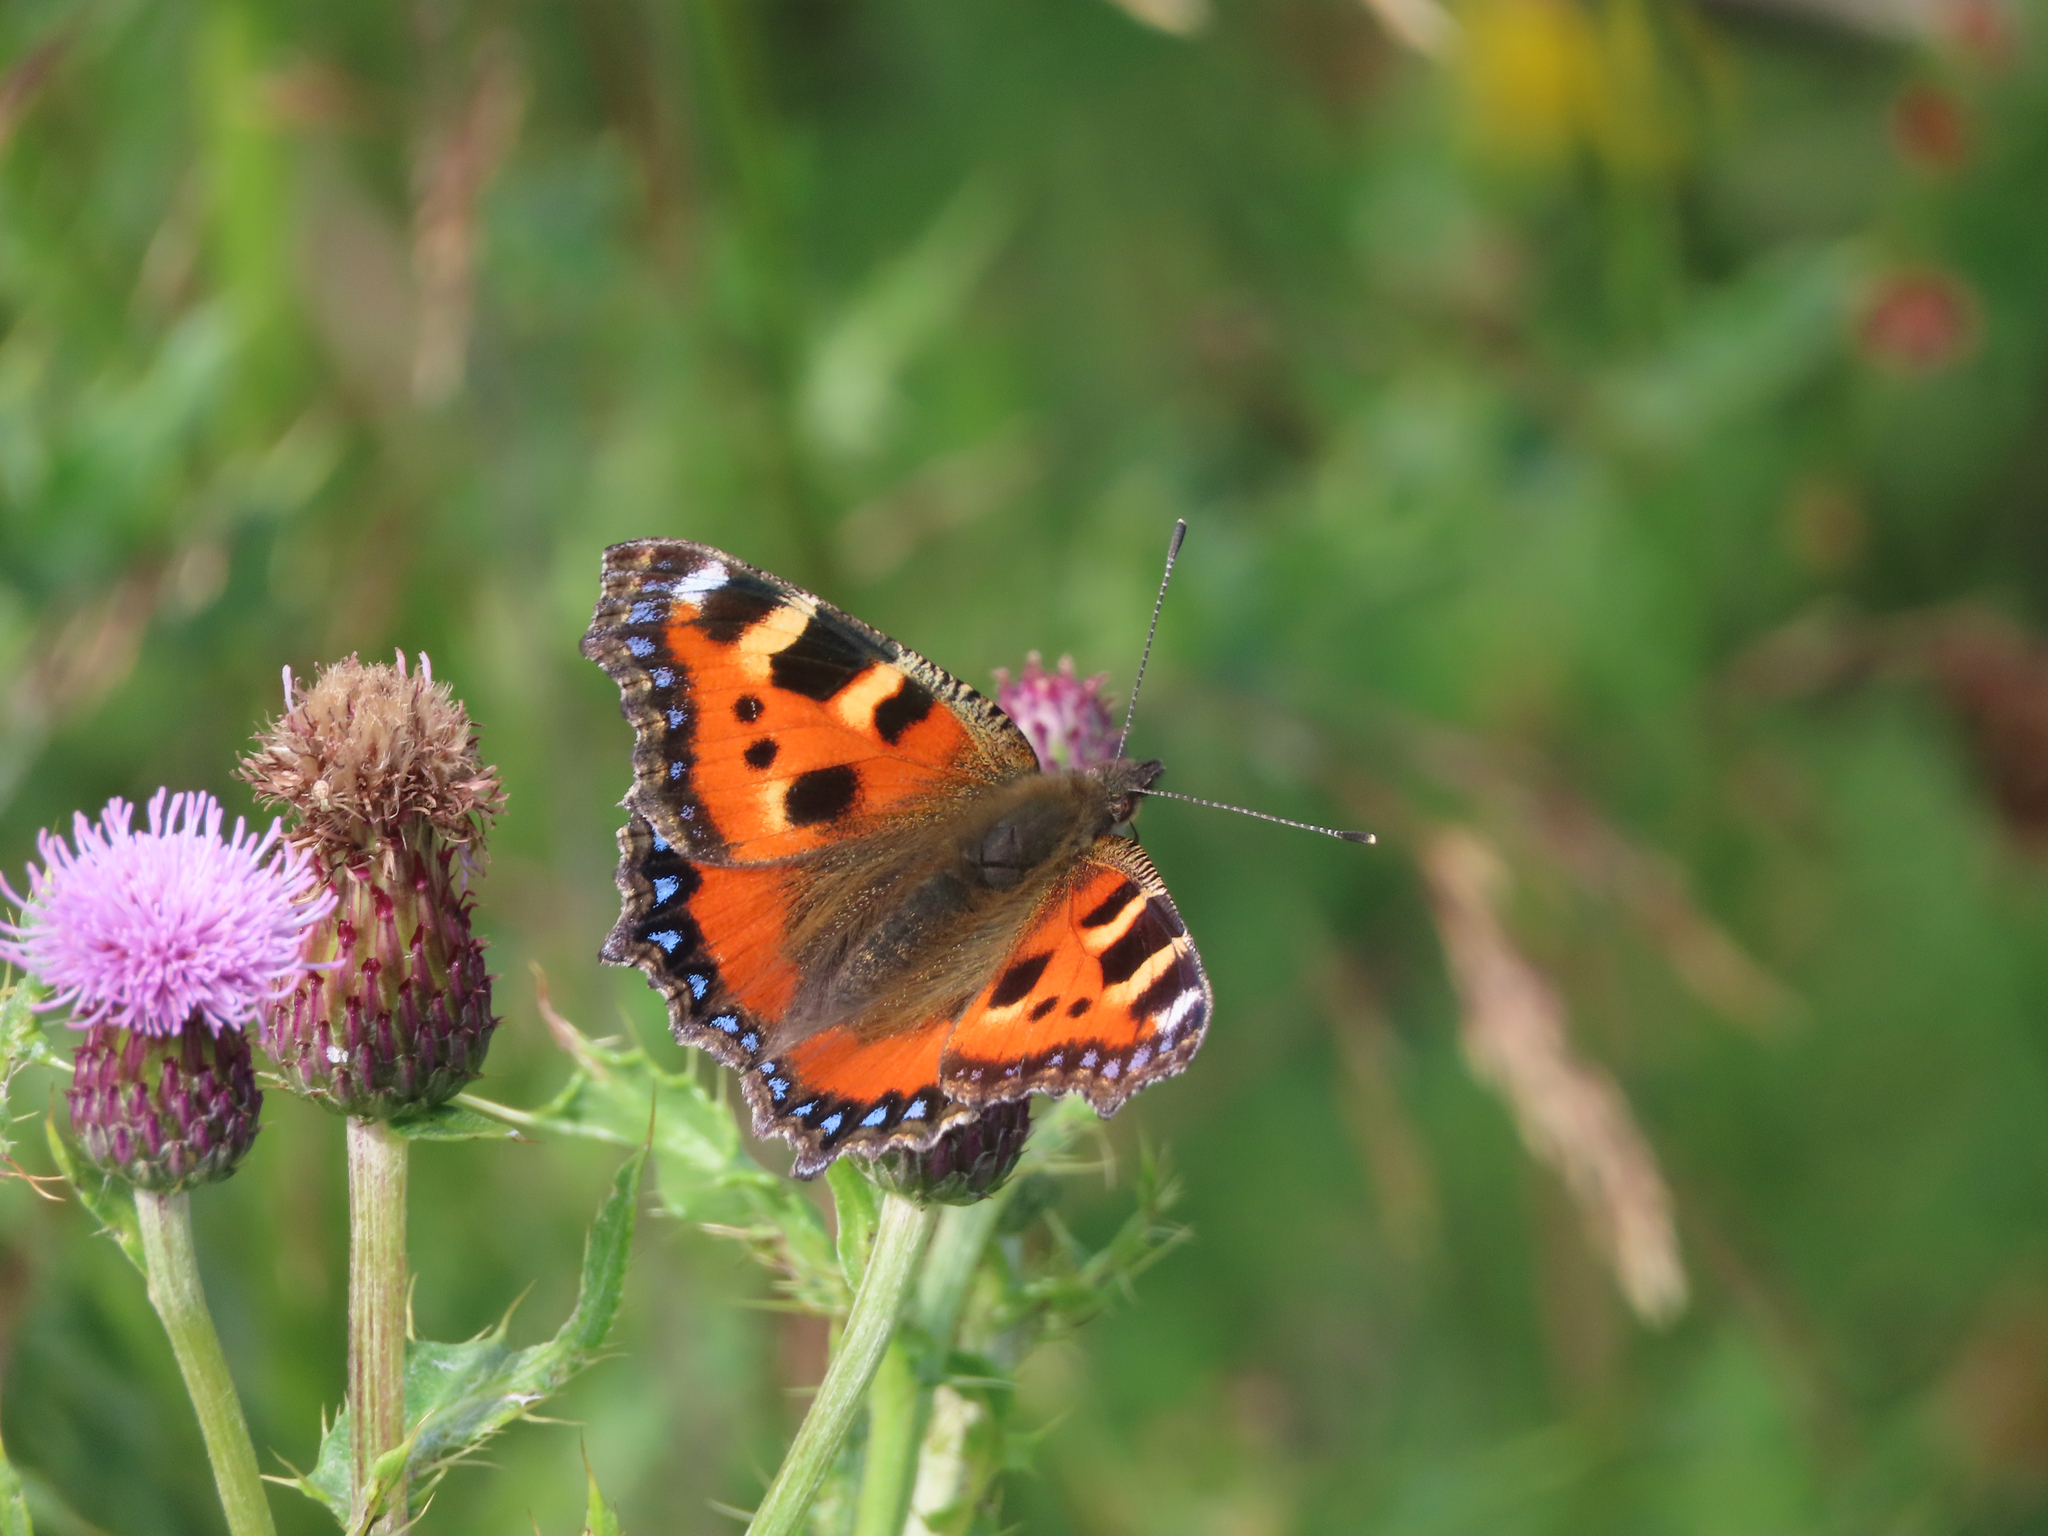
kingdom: Animalia
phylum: Arthropoda
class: Insecta
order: Lepidoptera
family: Nymphalidae
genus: Aglais
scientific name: Aglais urticae
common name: Small tortoiseshell
